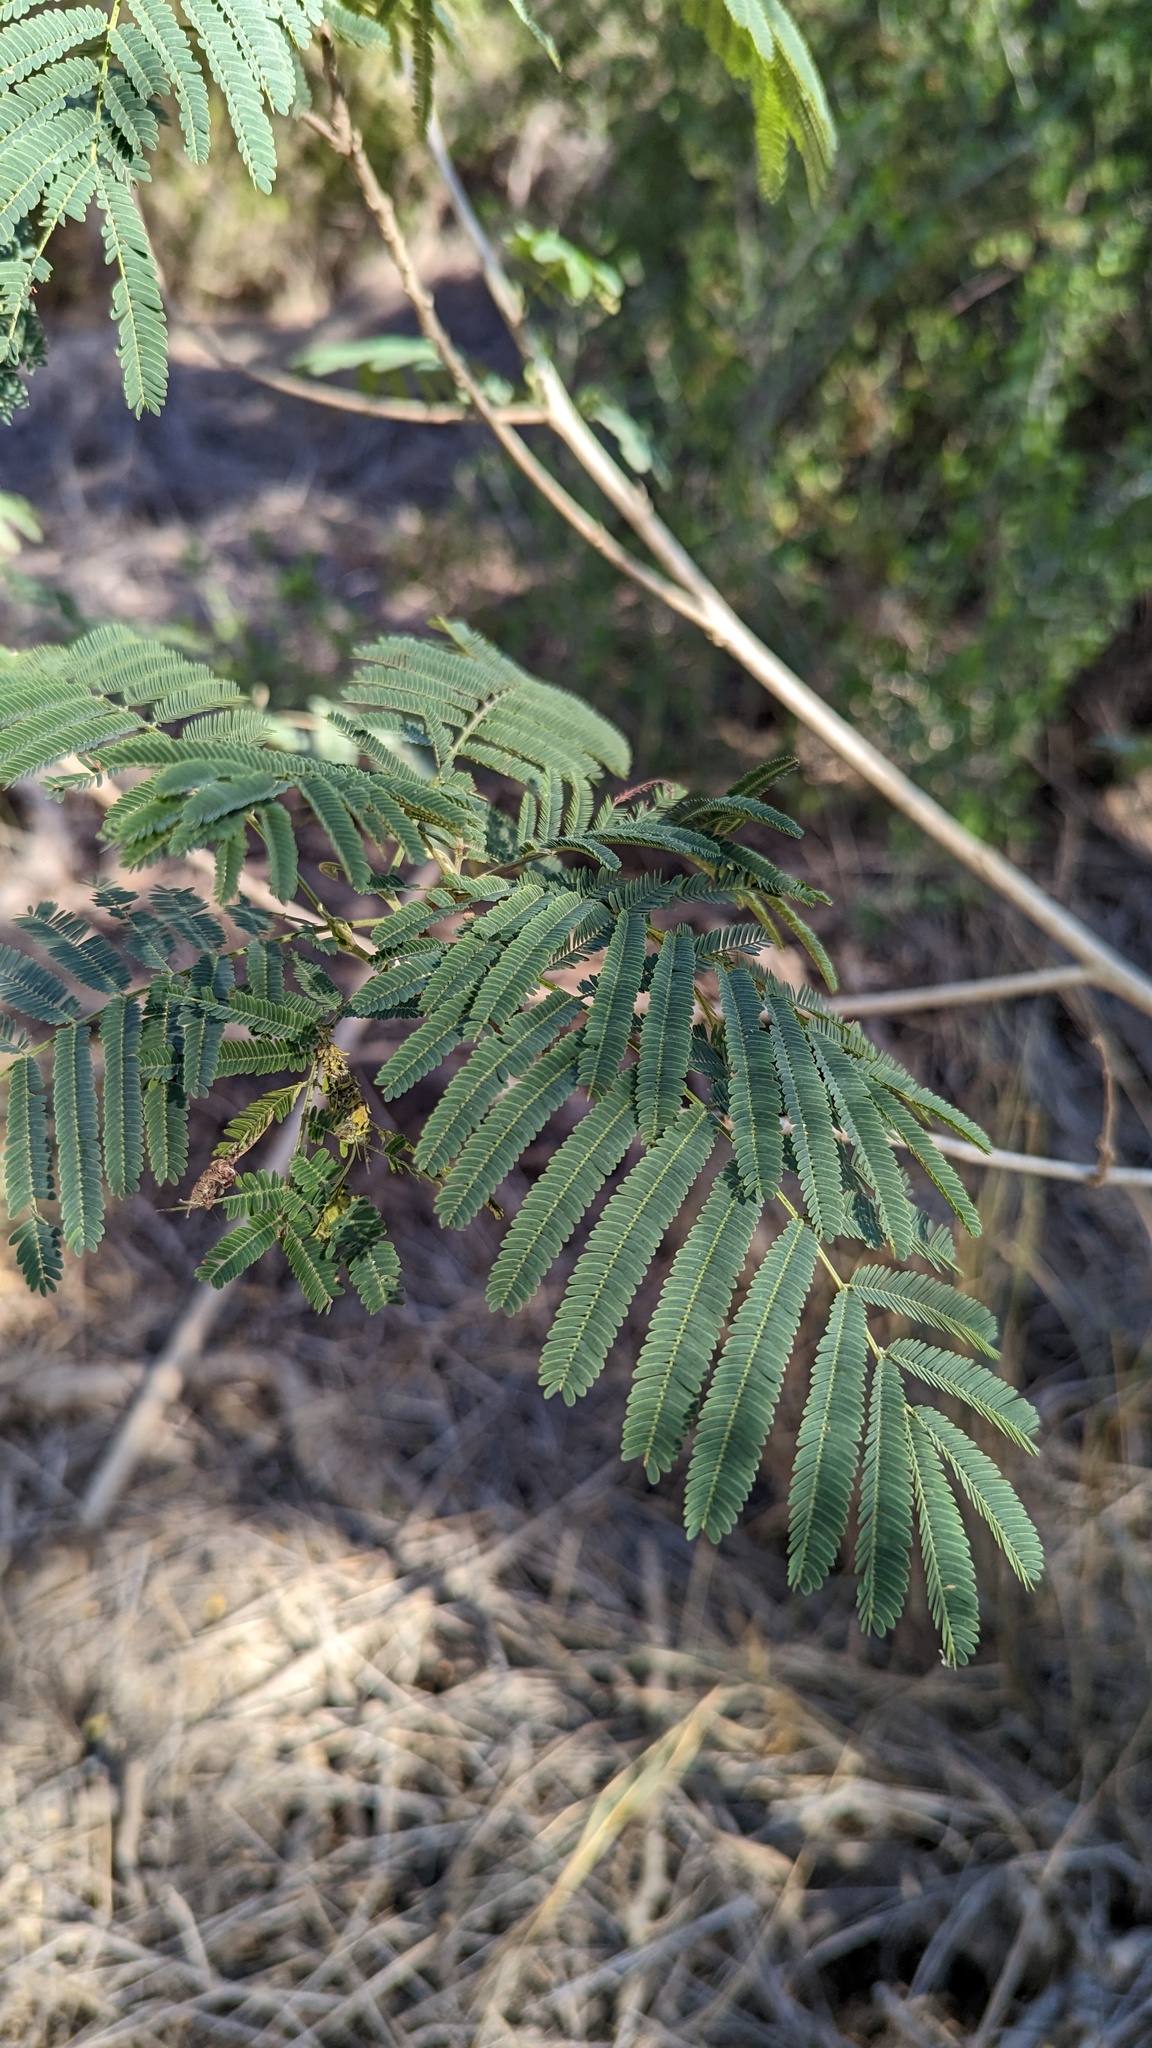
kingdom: Plantae
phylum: Tracheophyta
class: Magnoliopsida
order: Fabales
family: Fabaceae
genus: Leucaena
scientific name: Leucaena pulverulenta
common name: Great leadtree
